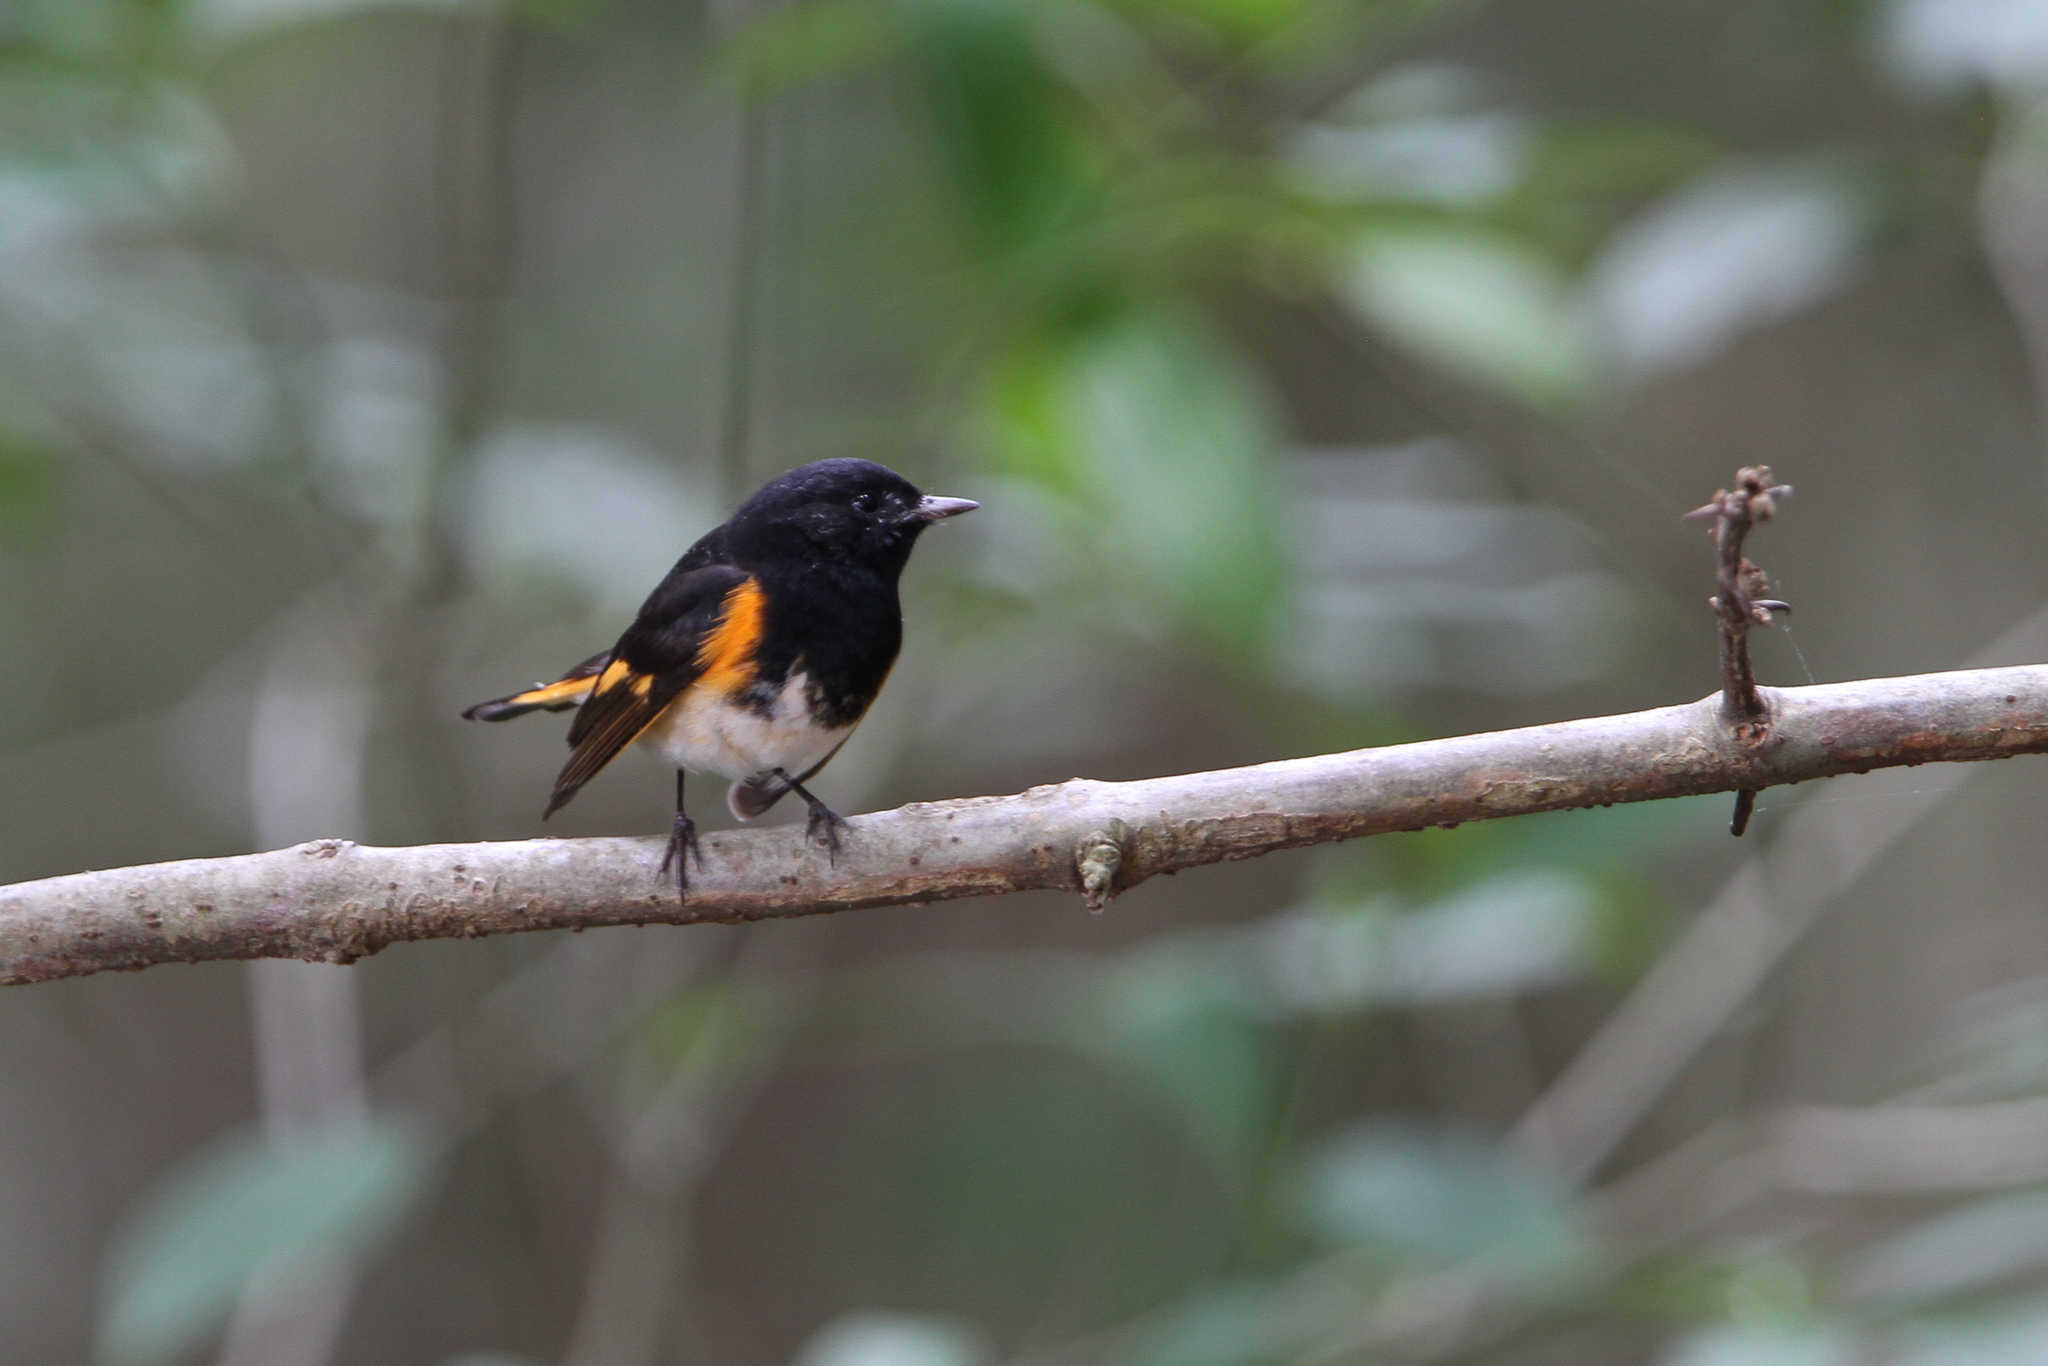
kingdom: Animalia
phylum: Chordata
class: Aves
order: Passeriformes
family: Parulidae
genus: Setophaga
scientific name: Setophaga ruticilla
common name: American redstart
